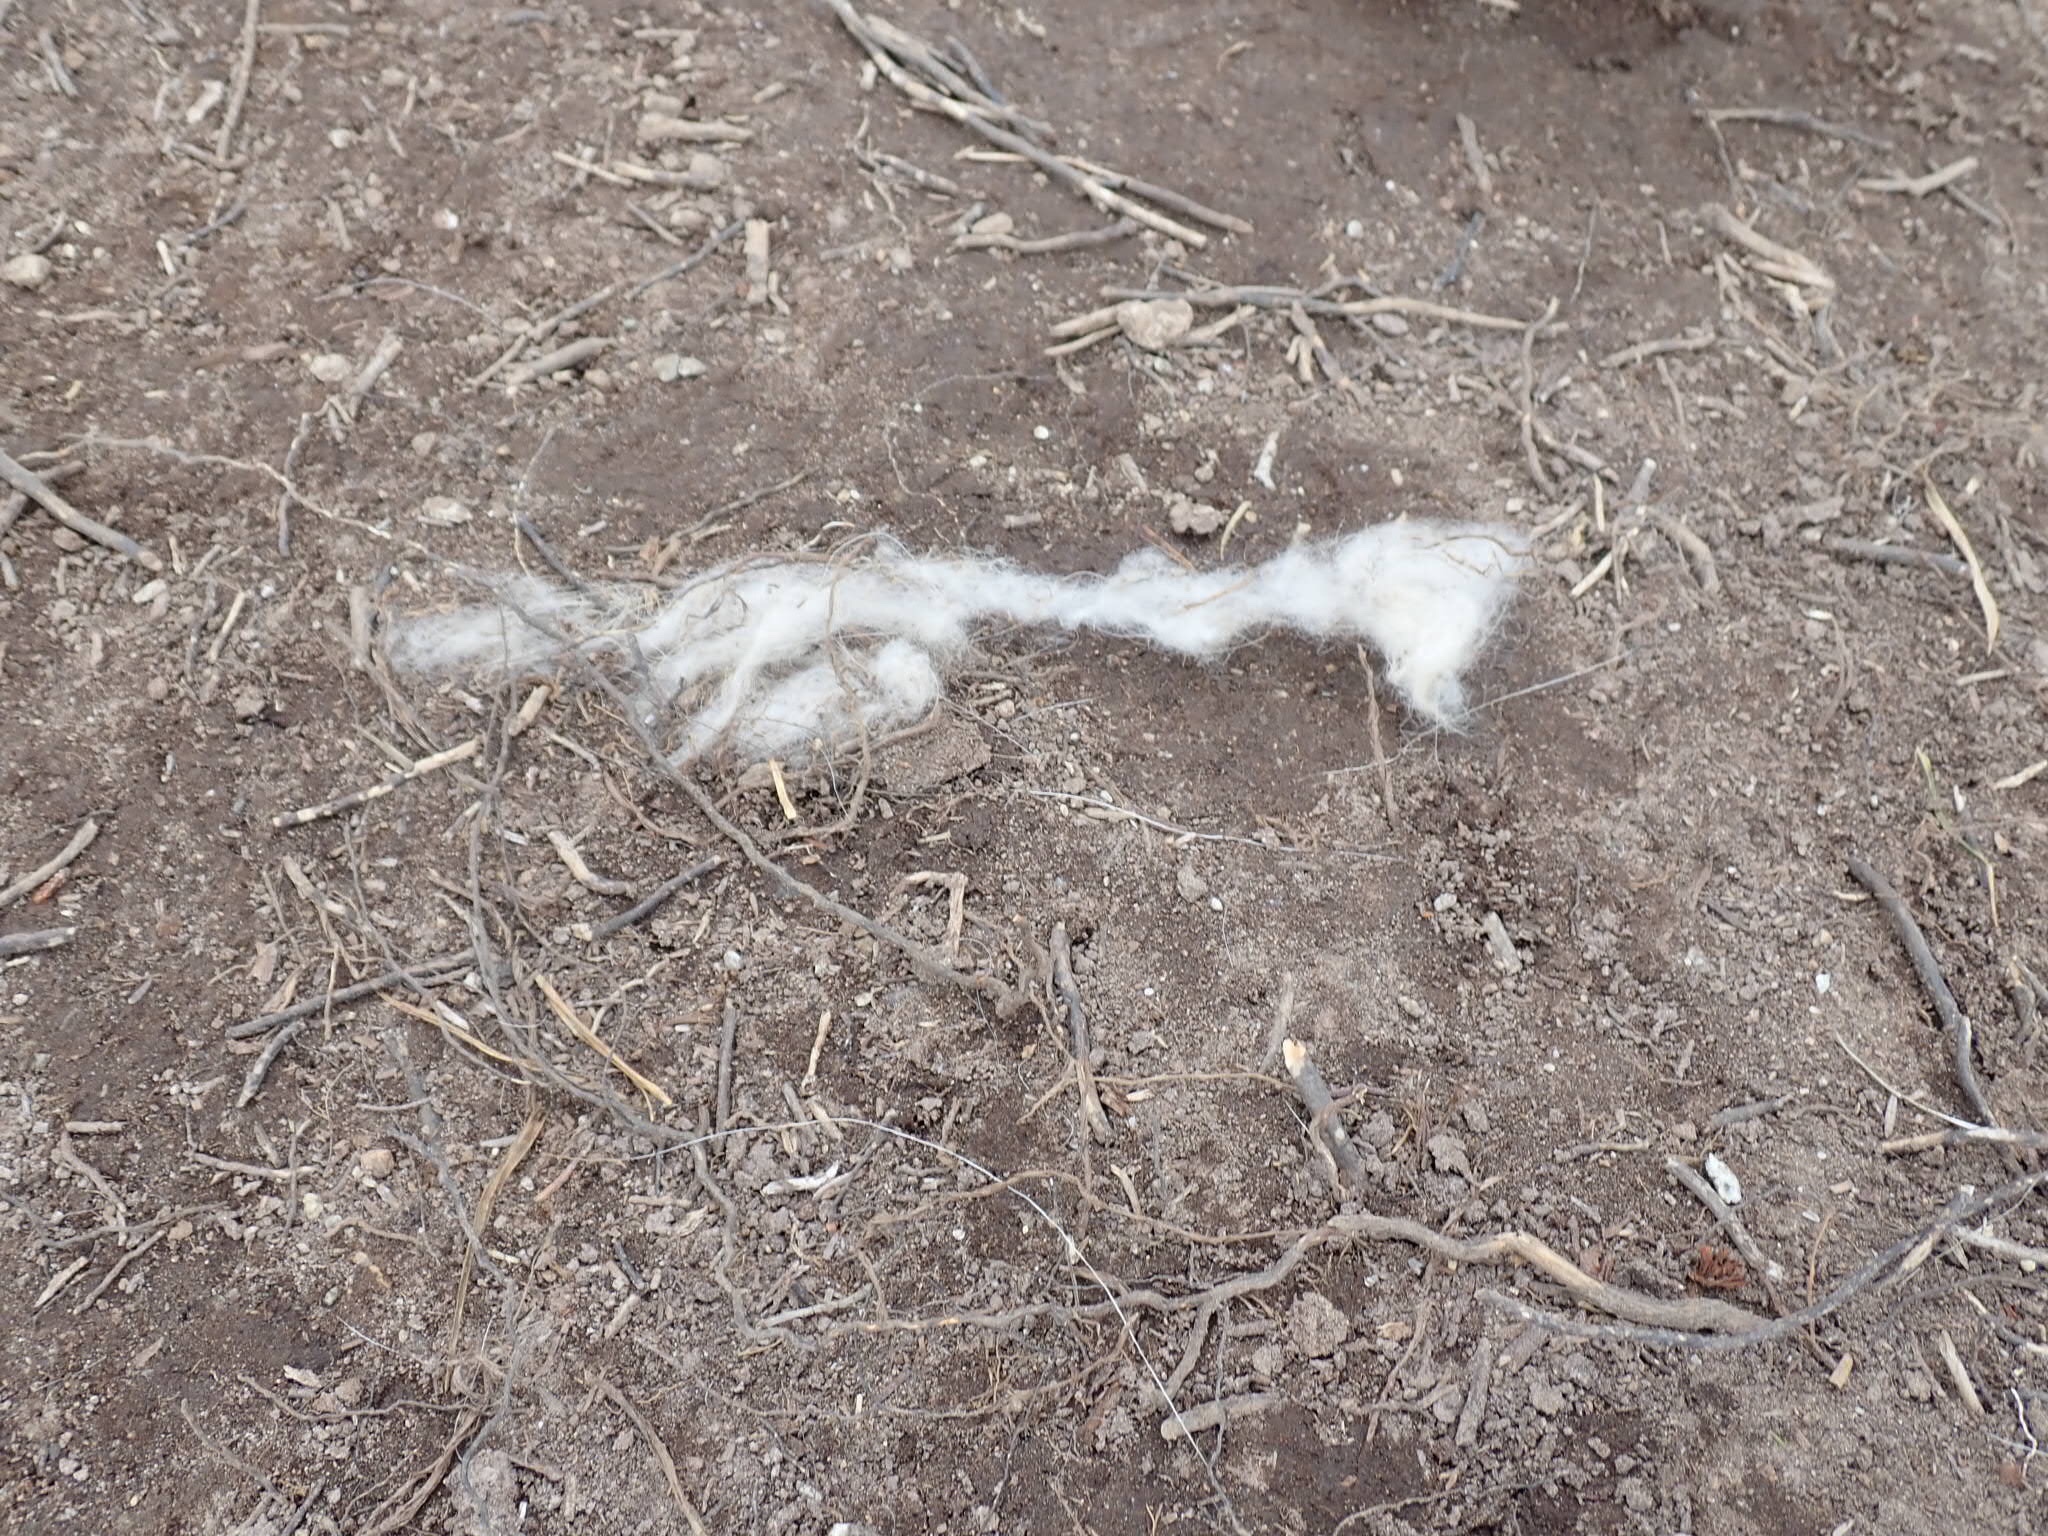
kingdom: Animalia
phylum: Chordata
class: Mammalia
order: Artiodactyla
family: Bovidae
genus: Oreamnos
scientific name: Oreamnos americanus
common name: Mountain goat
